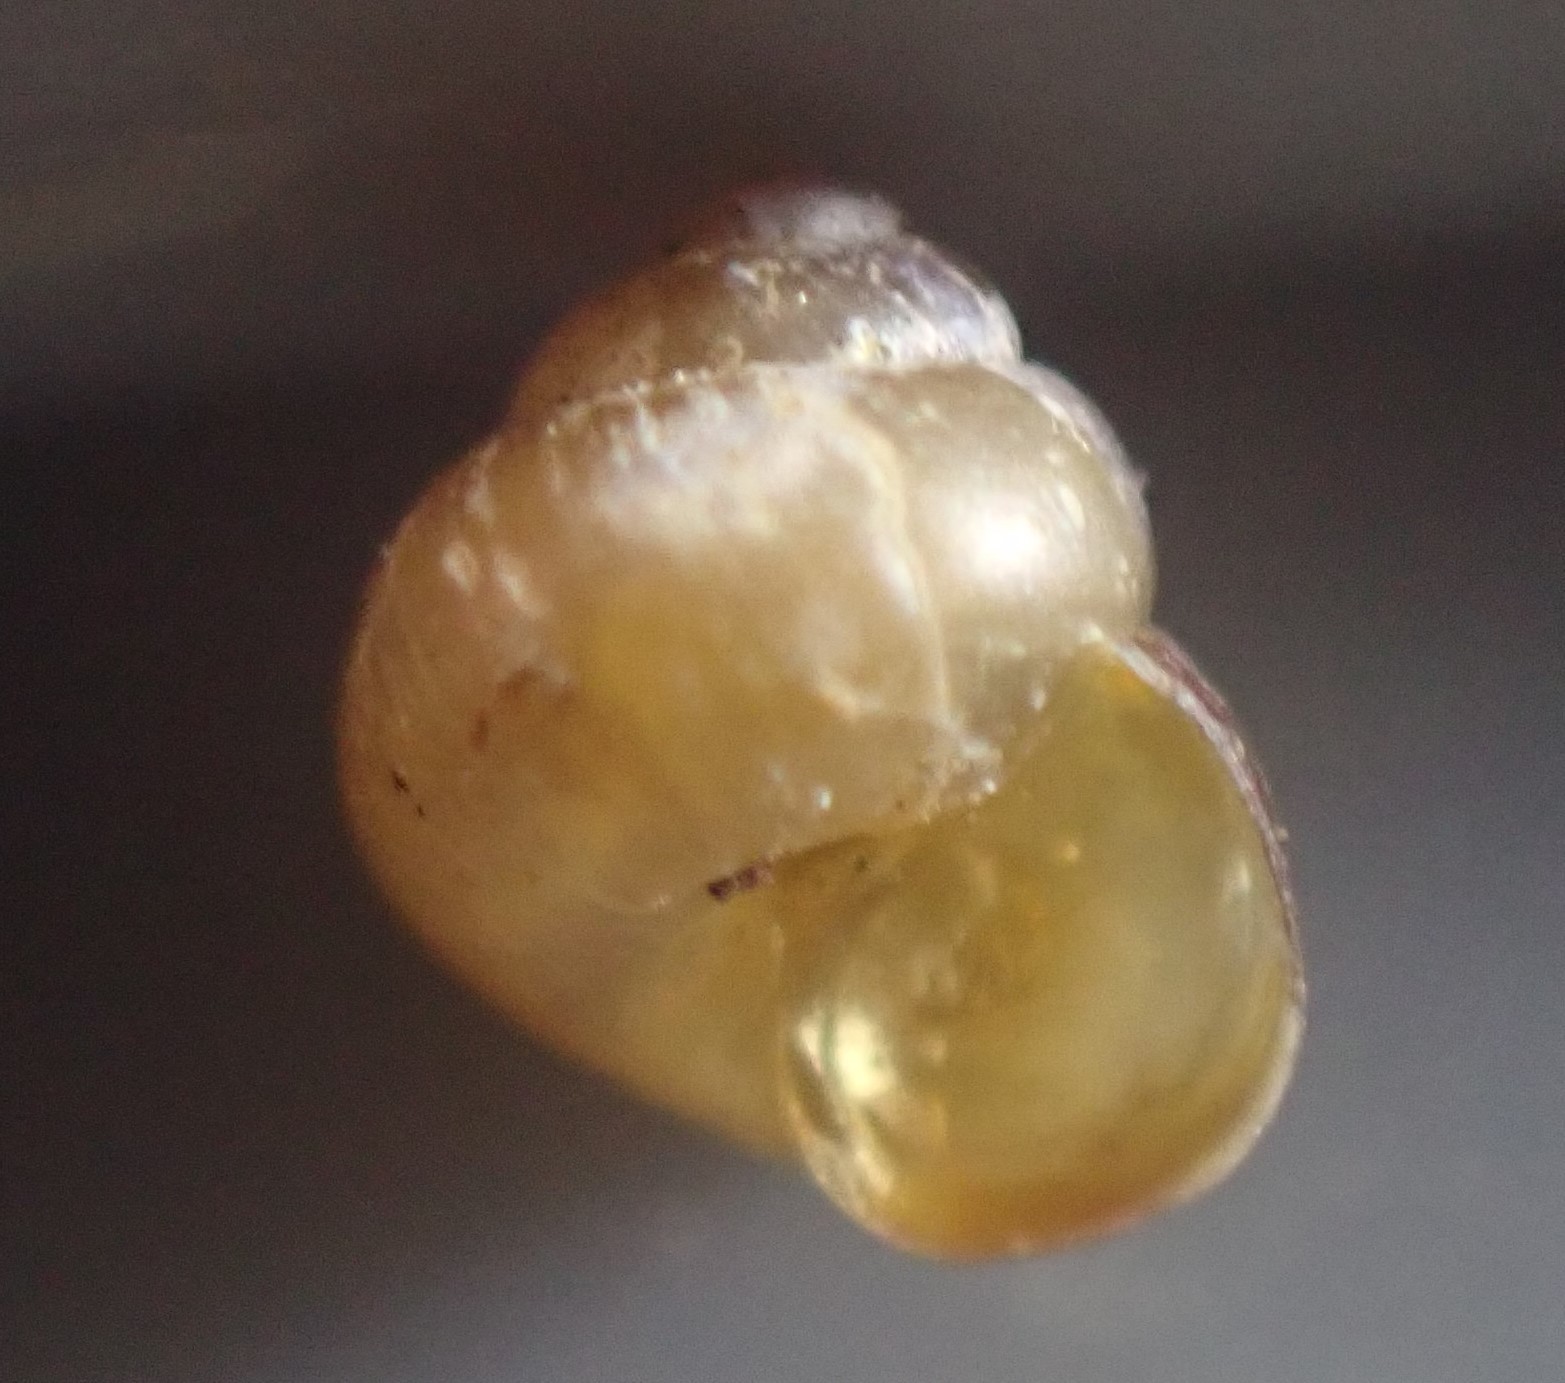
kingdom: Animalia
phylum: Mollusca
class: Gastropoda
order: Littorinimorpha
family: Assimineidae
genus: Suterilla
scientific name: Suterilla neozelanica
